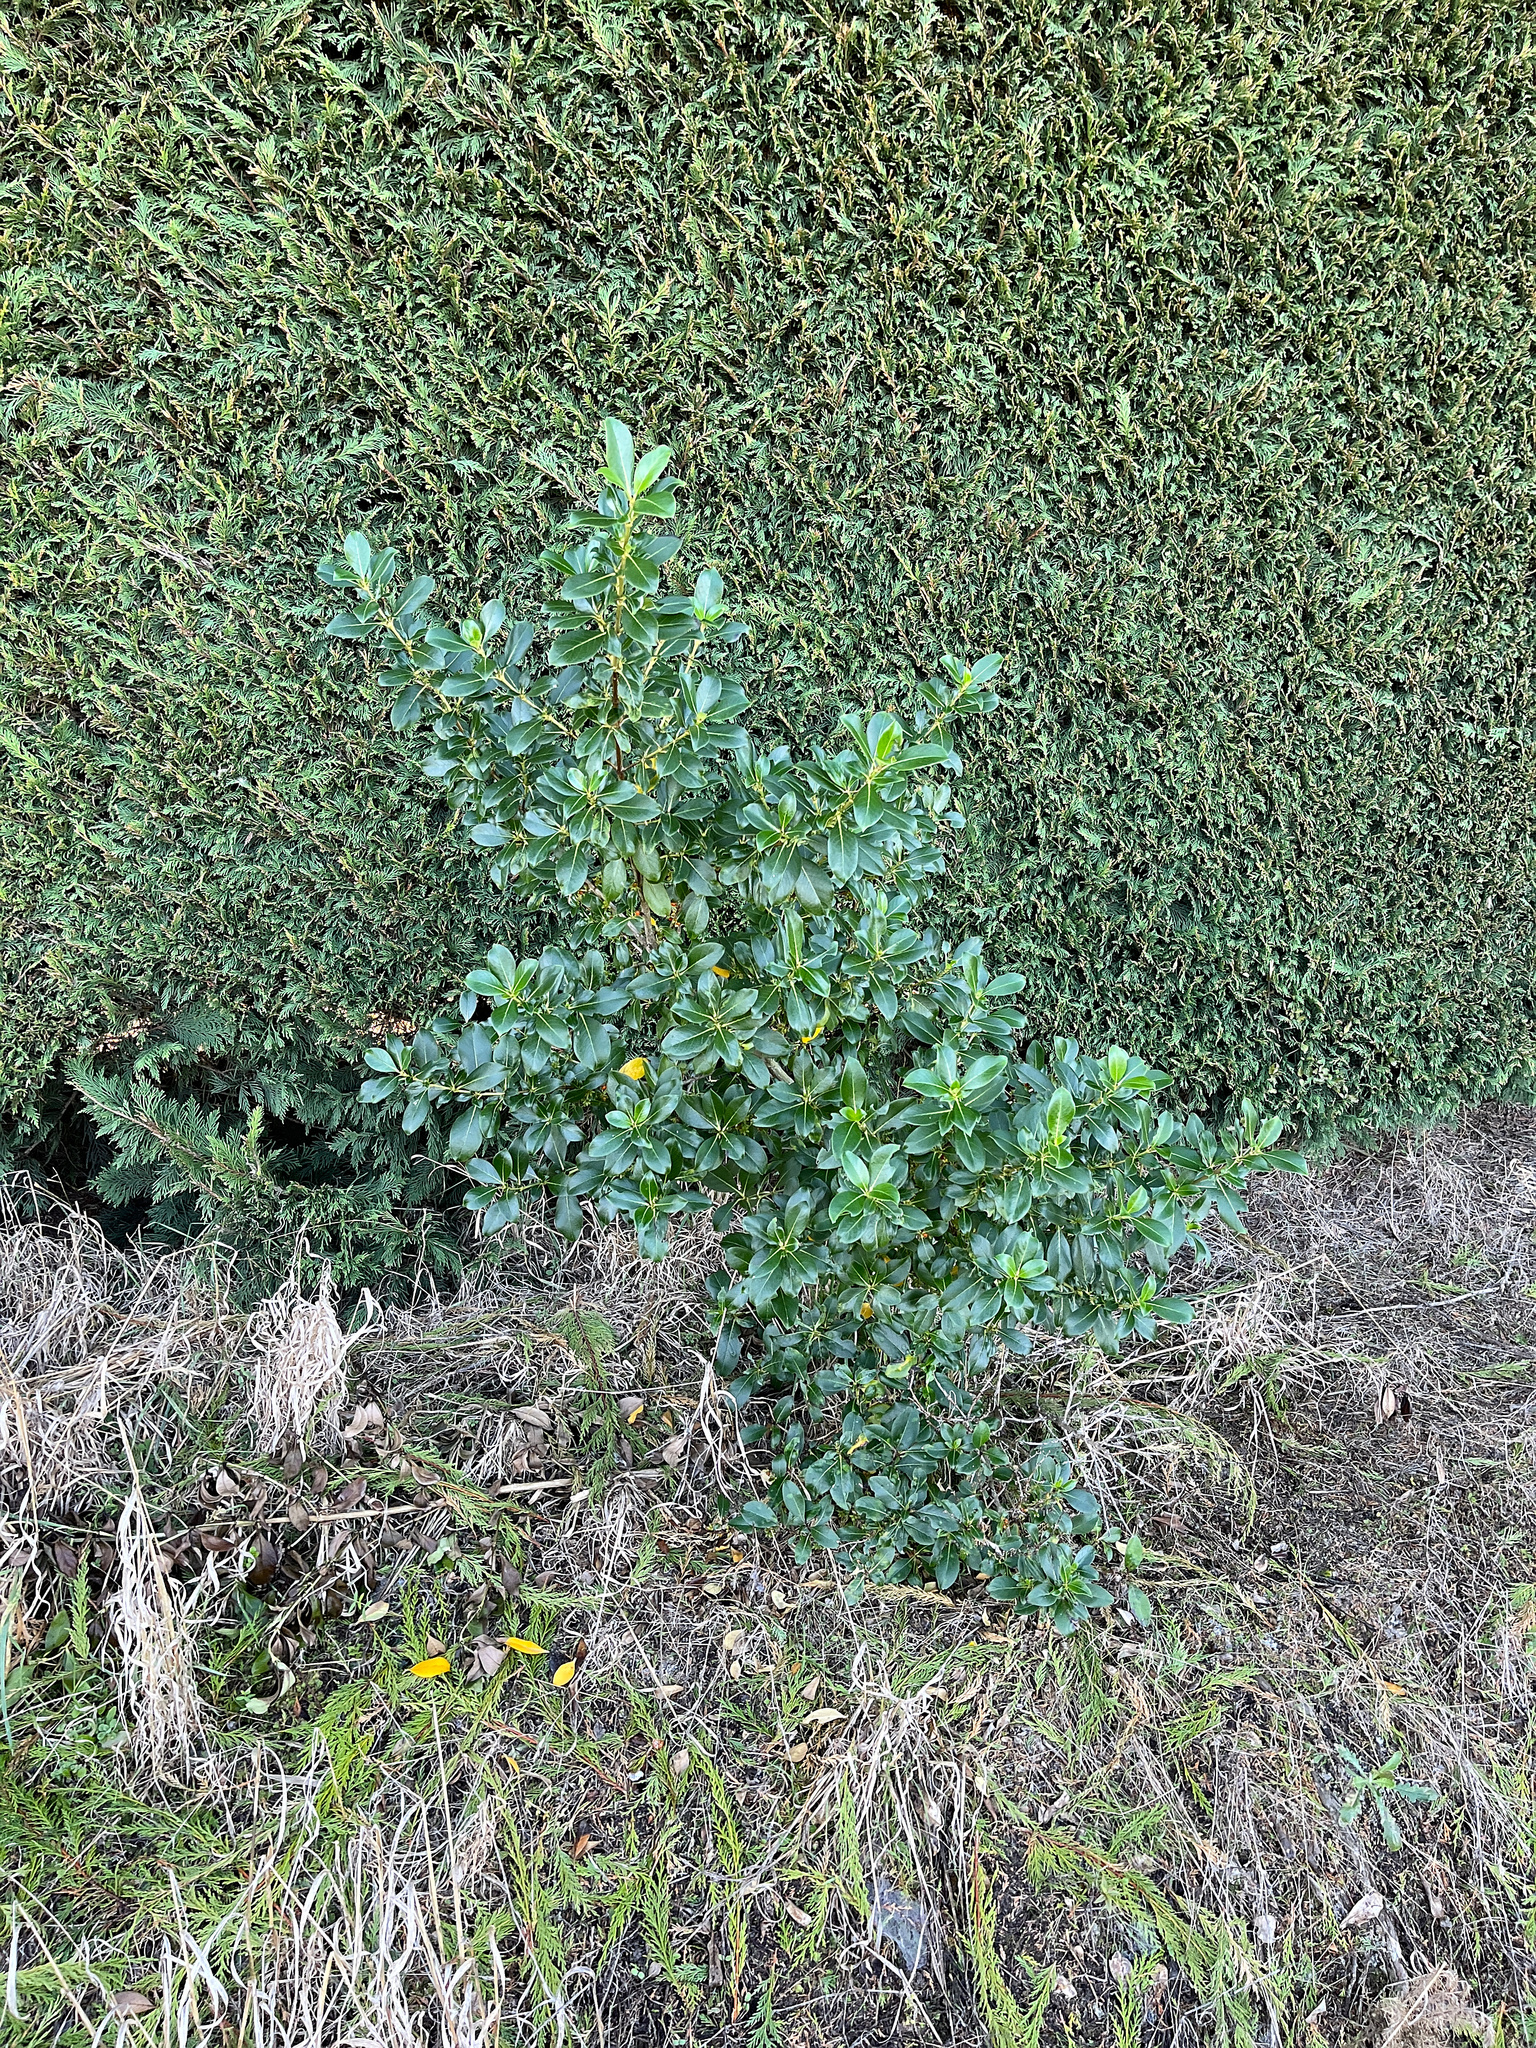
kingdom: Plantae
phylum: Tracheophyta
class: Magnoliopsida
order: Gentianales
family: Rubiaceae
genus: Coprosma
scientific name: Coprosma robusta
